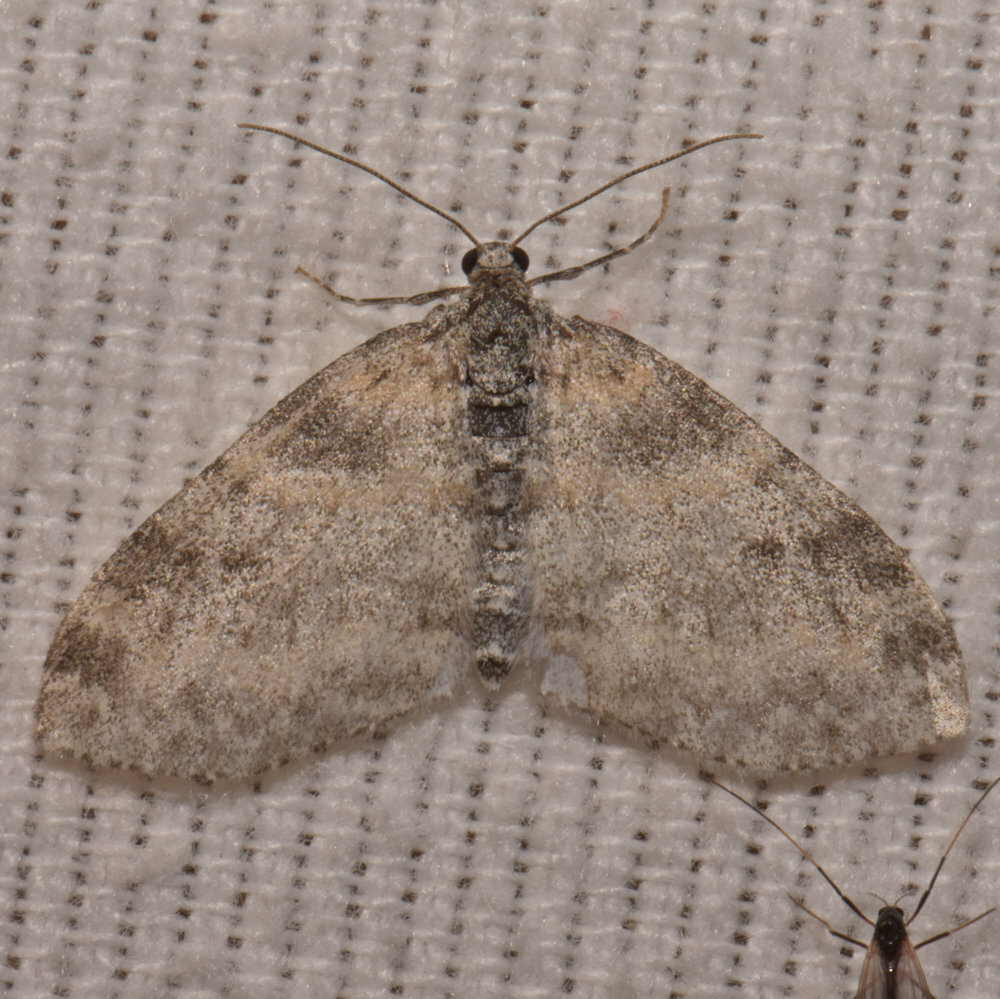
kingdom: Animalia
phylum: Arthropoda
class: Insecta
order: Lepidoptera
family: Geometridae
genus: Lobophora
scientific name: Lobophora nivigerata
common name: Powdered bigwing
